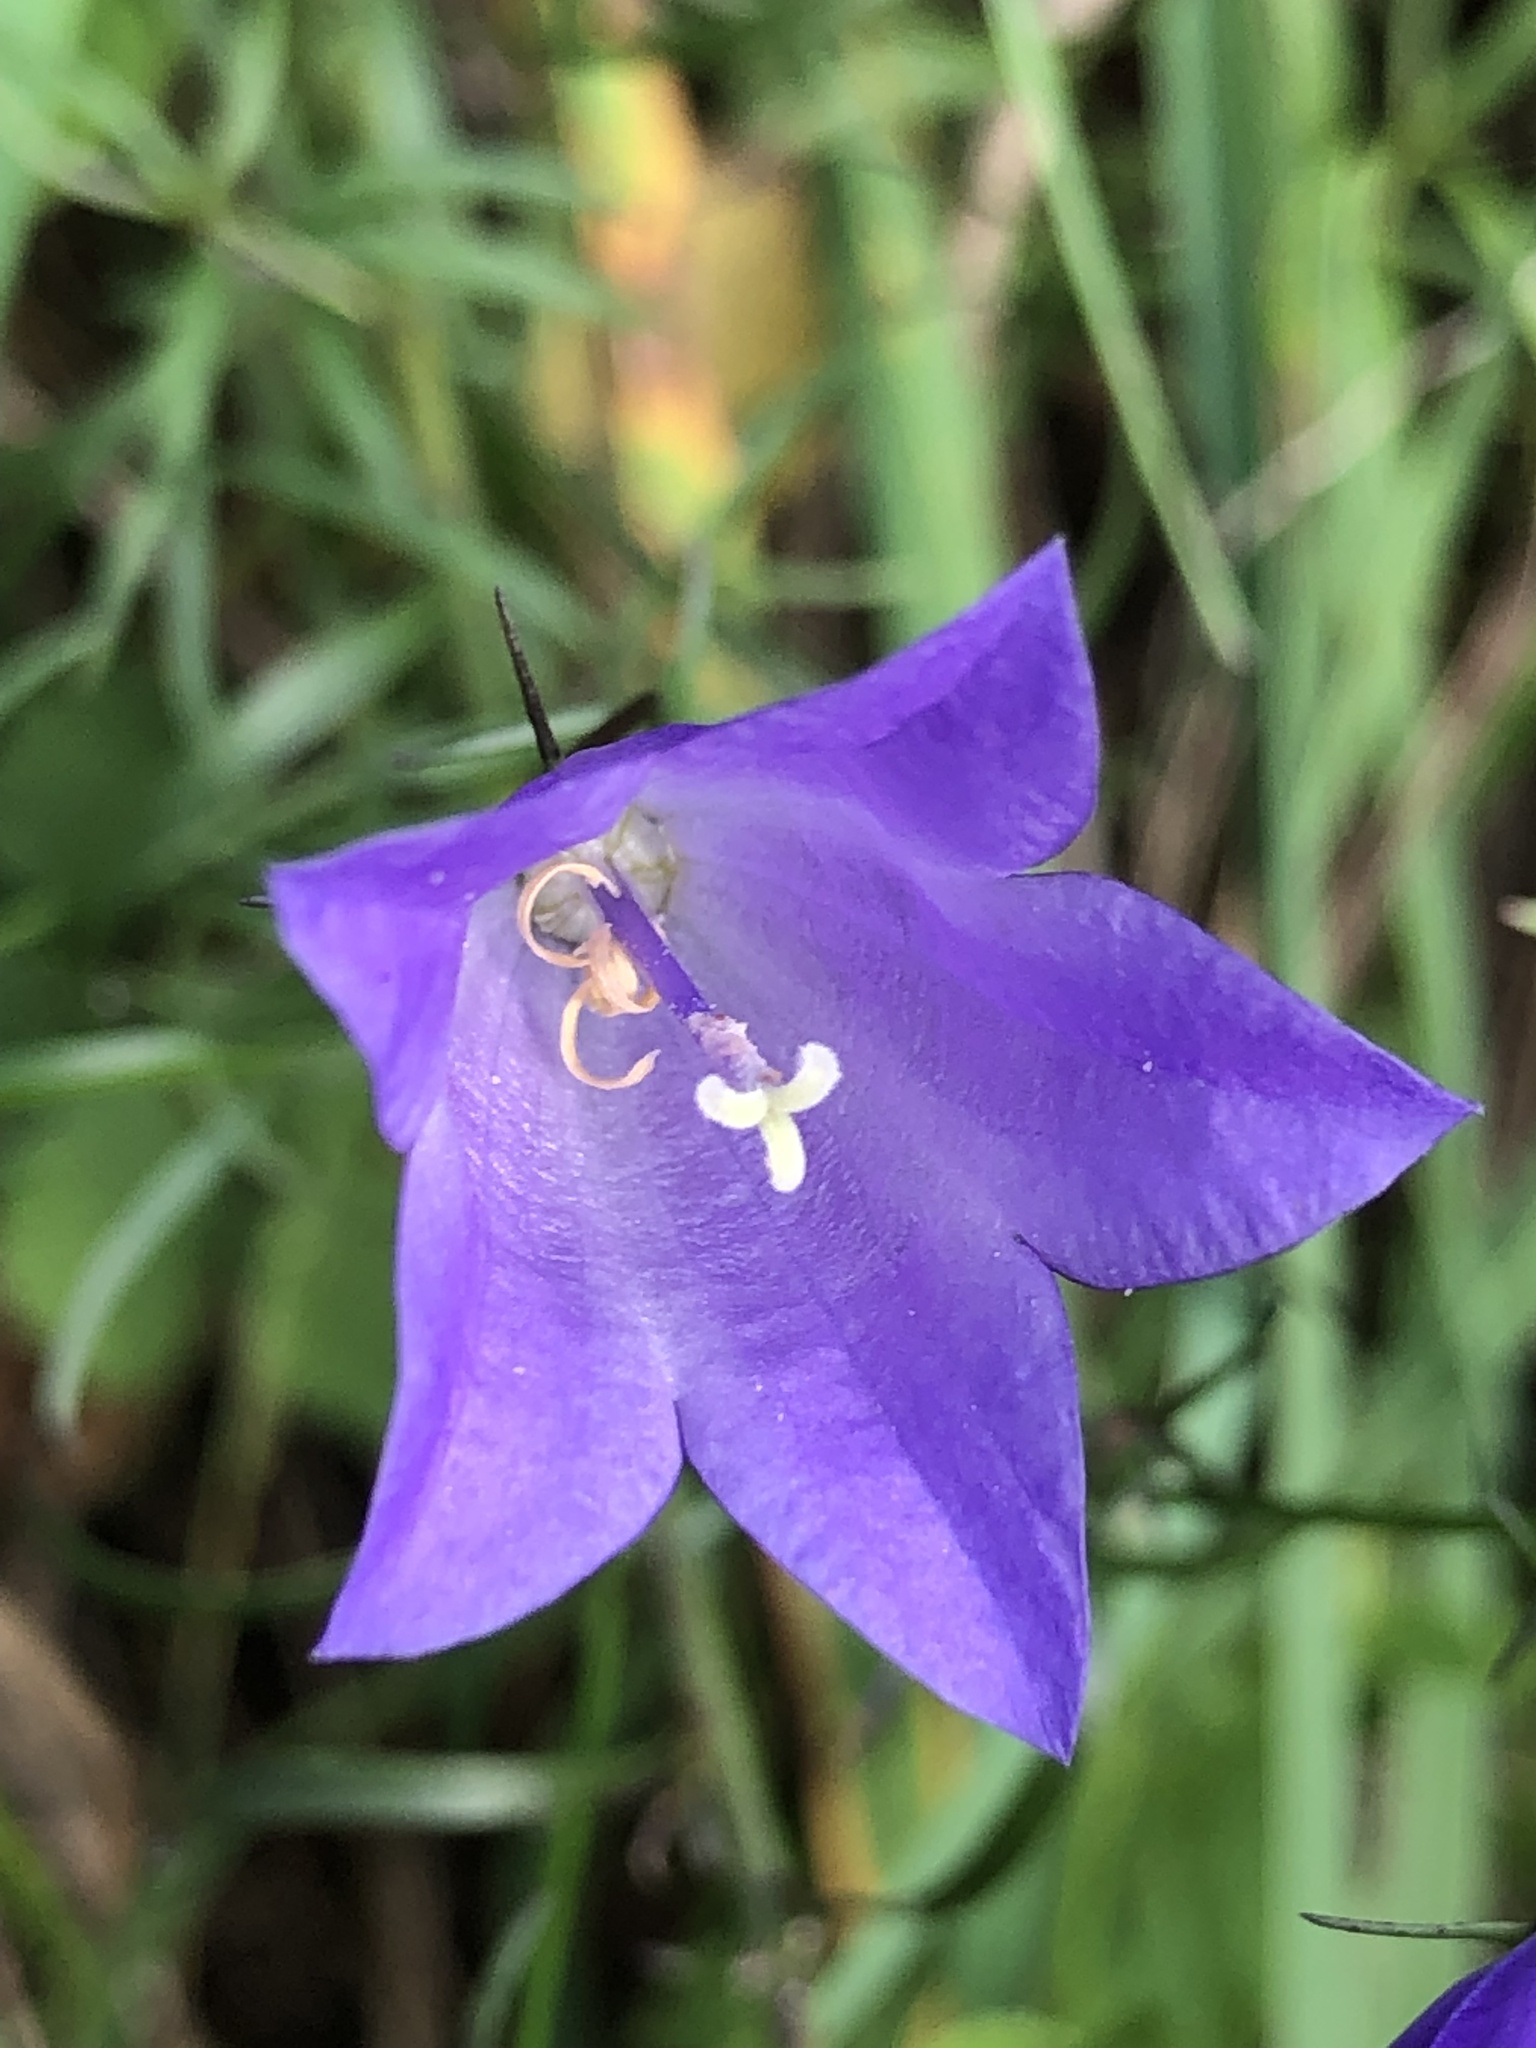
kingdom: Plantae
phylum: Tracheophyta
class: Magnoliopsida
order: Asterales
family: Campanulaceae
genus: Campanula
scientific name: Campanula rotundifolia
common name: Harebell
